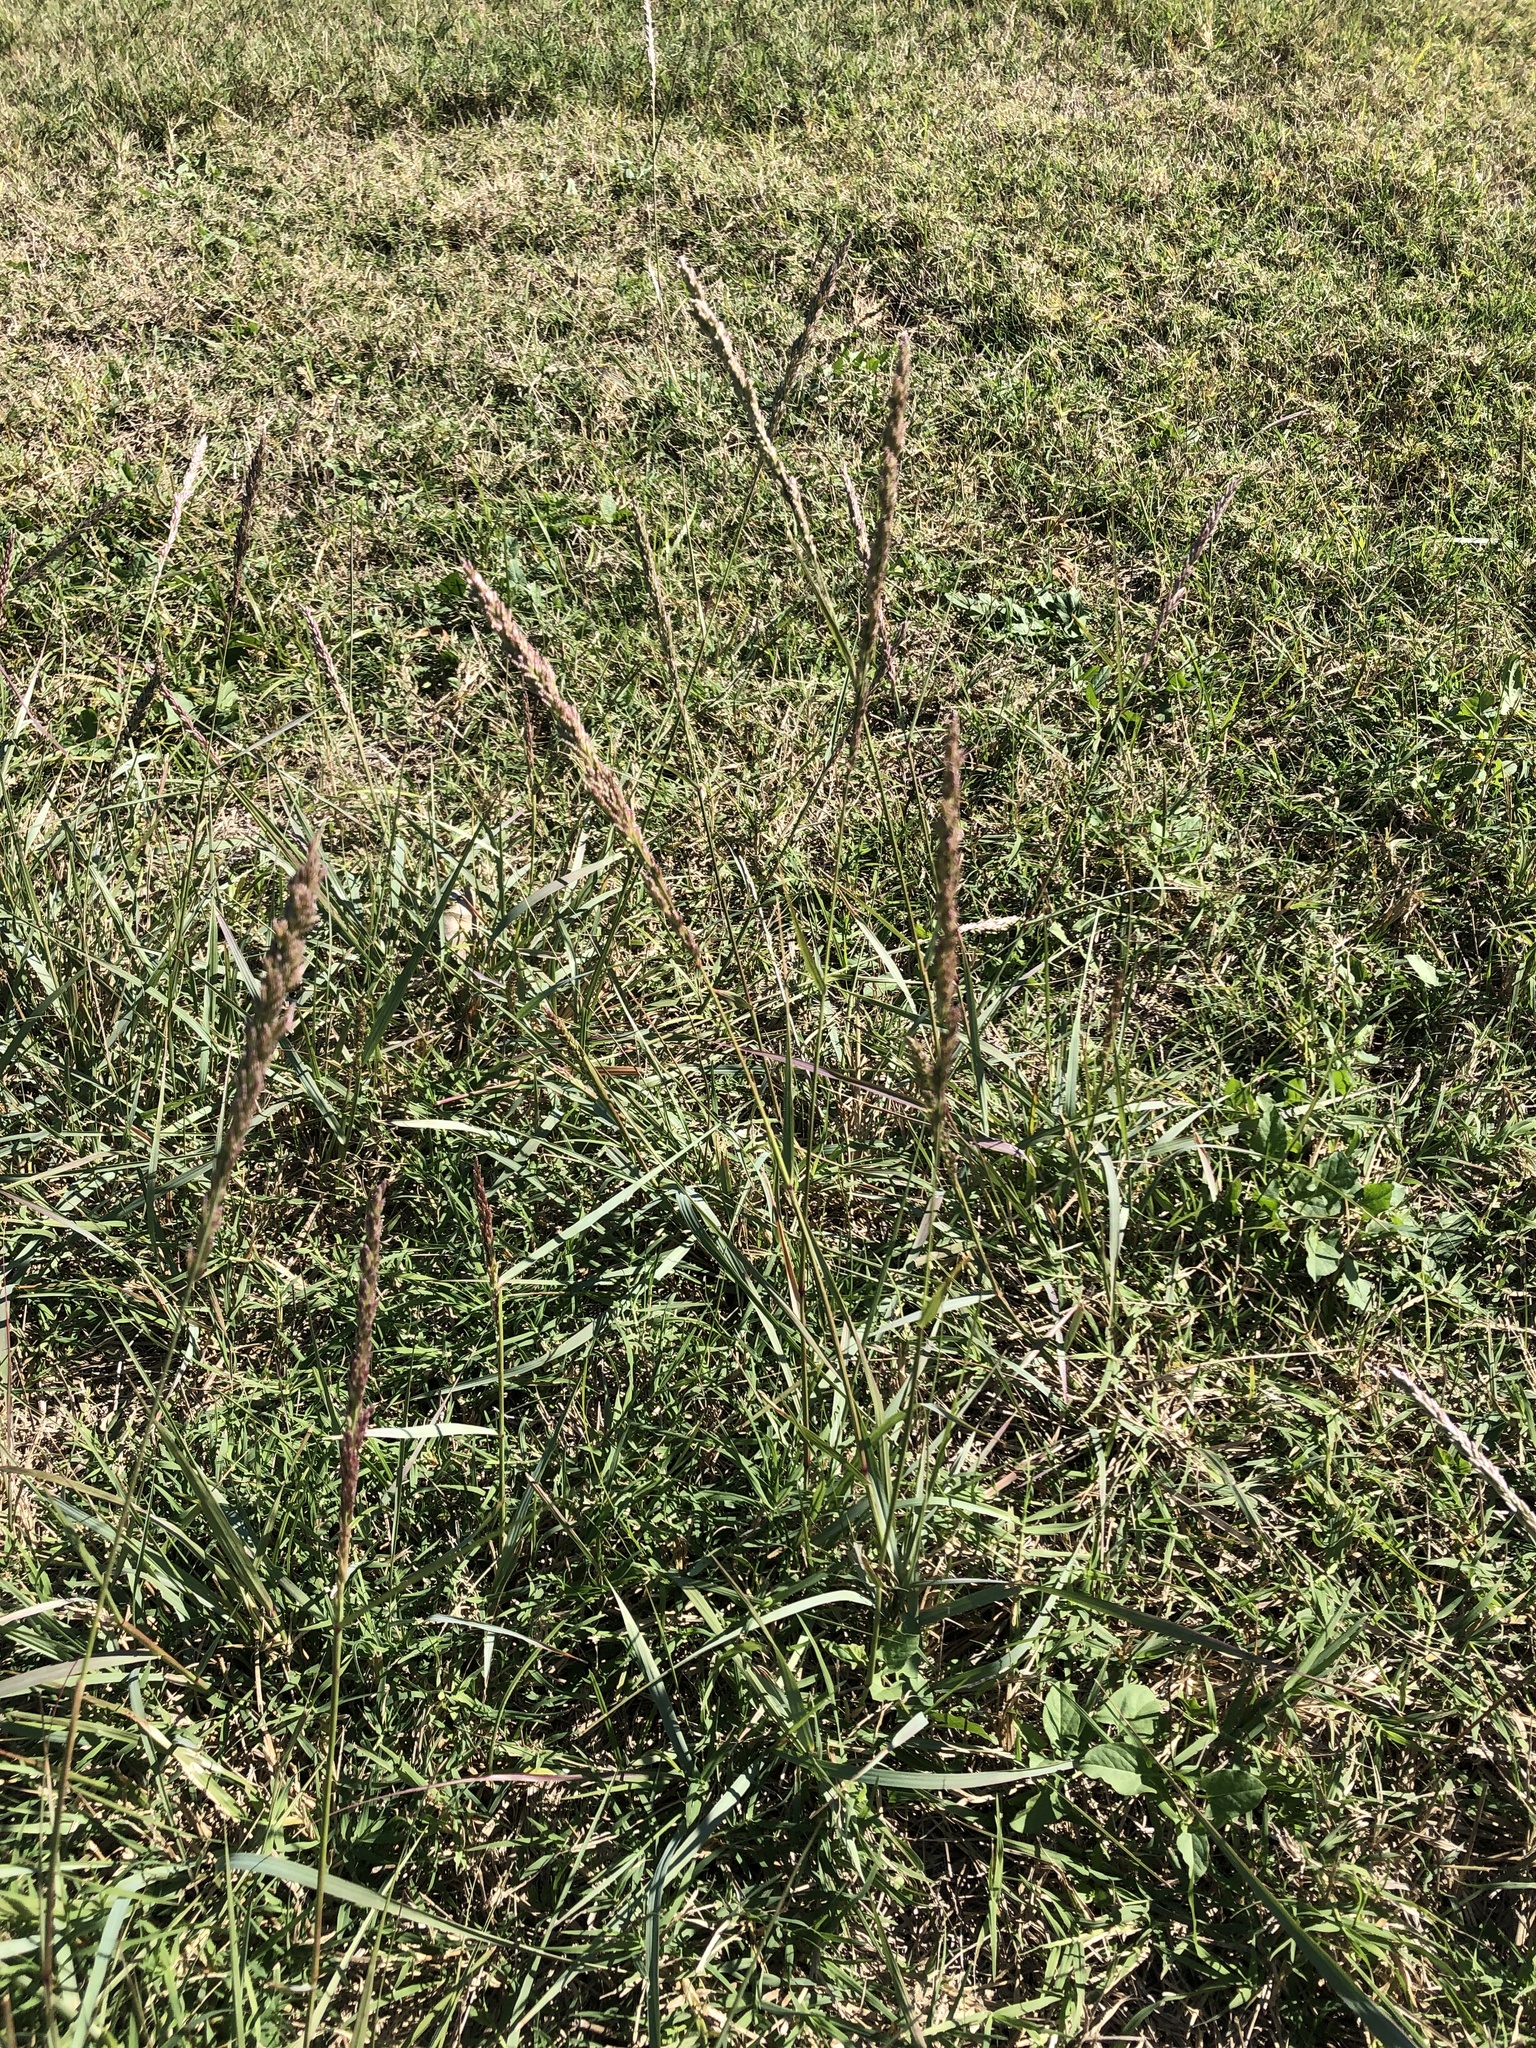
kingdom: Plantae
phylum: Tracheophyta
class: Liliopsida
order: Poales
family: Poaceae
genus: Tridens
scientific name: Tridens albescens
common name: White tridens
